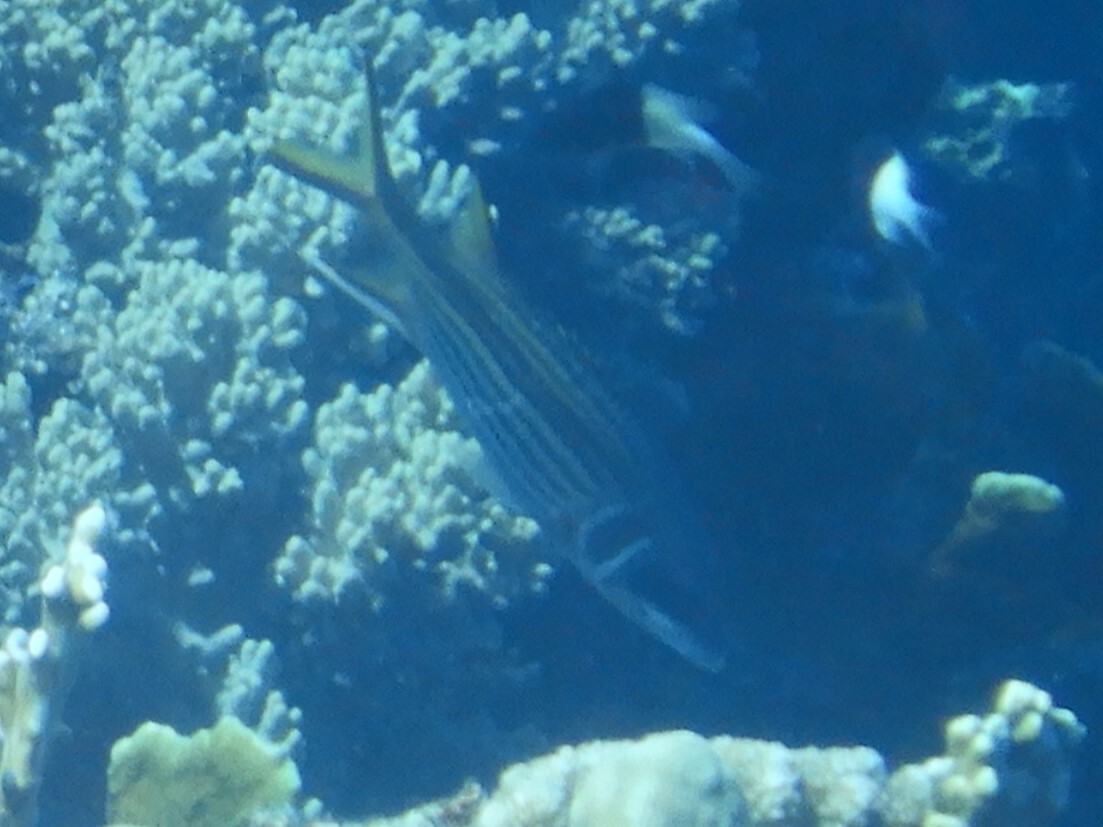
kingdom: Animalia
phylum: Chordata
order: Beryciformes
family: Holocentridae
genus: Neoniphon
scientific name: Neoniphon sammara
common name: Sammara squirrelfish
